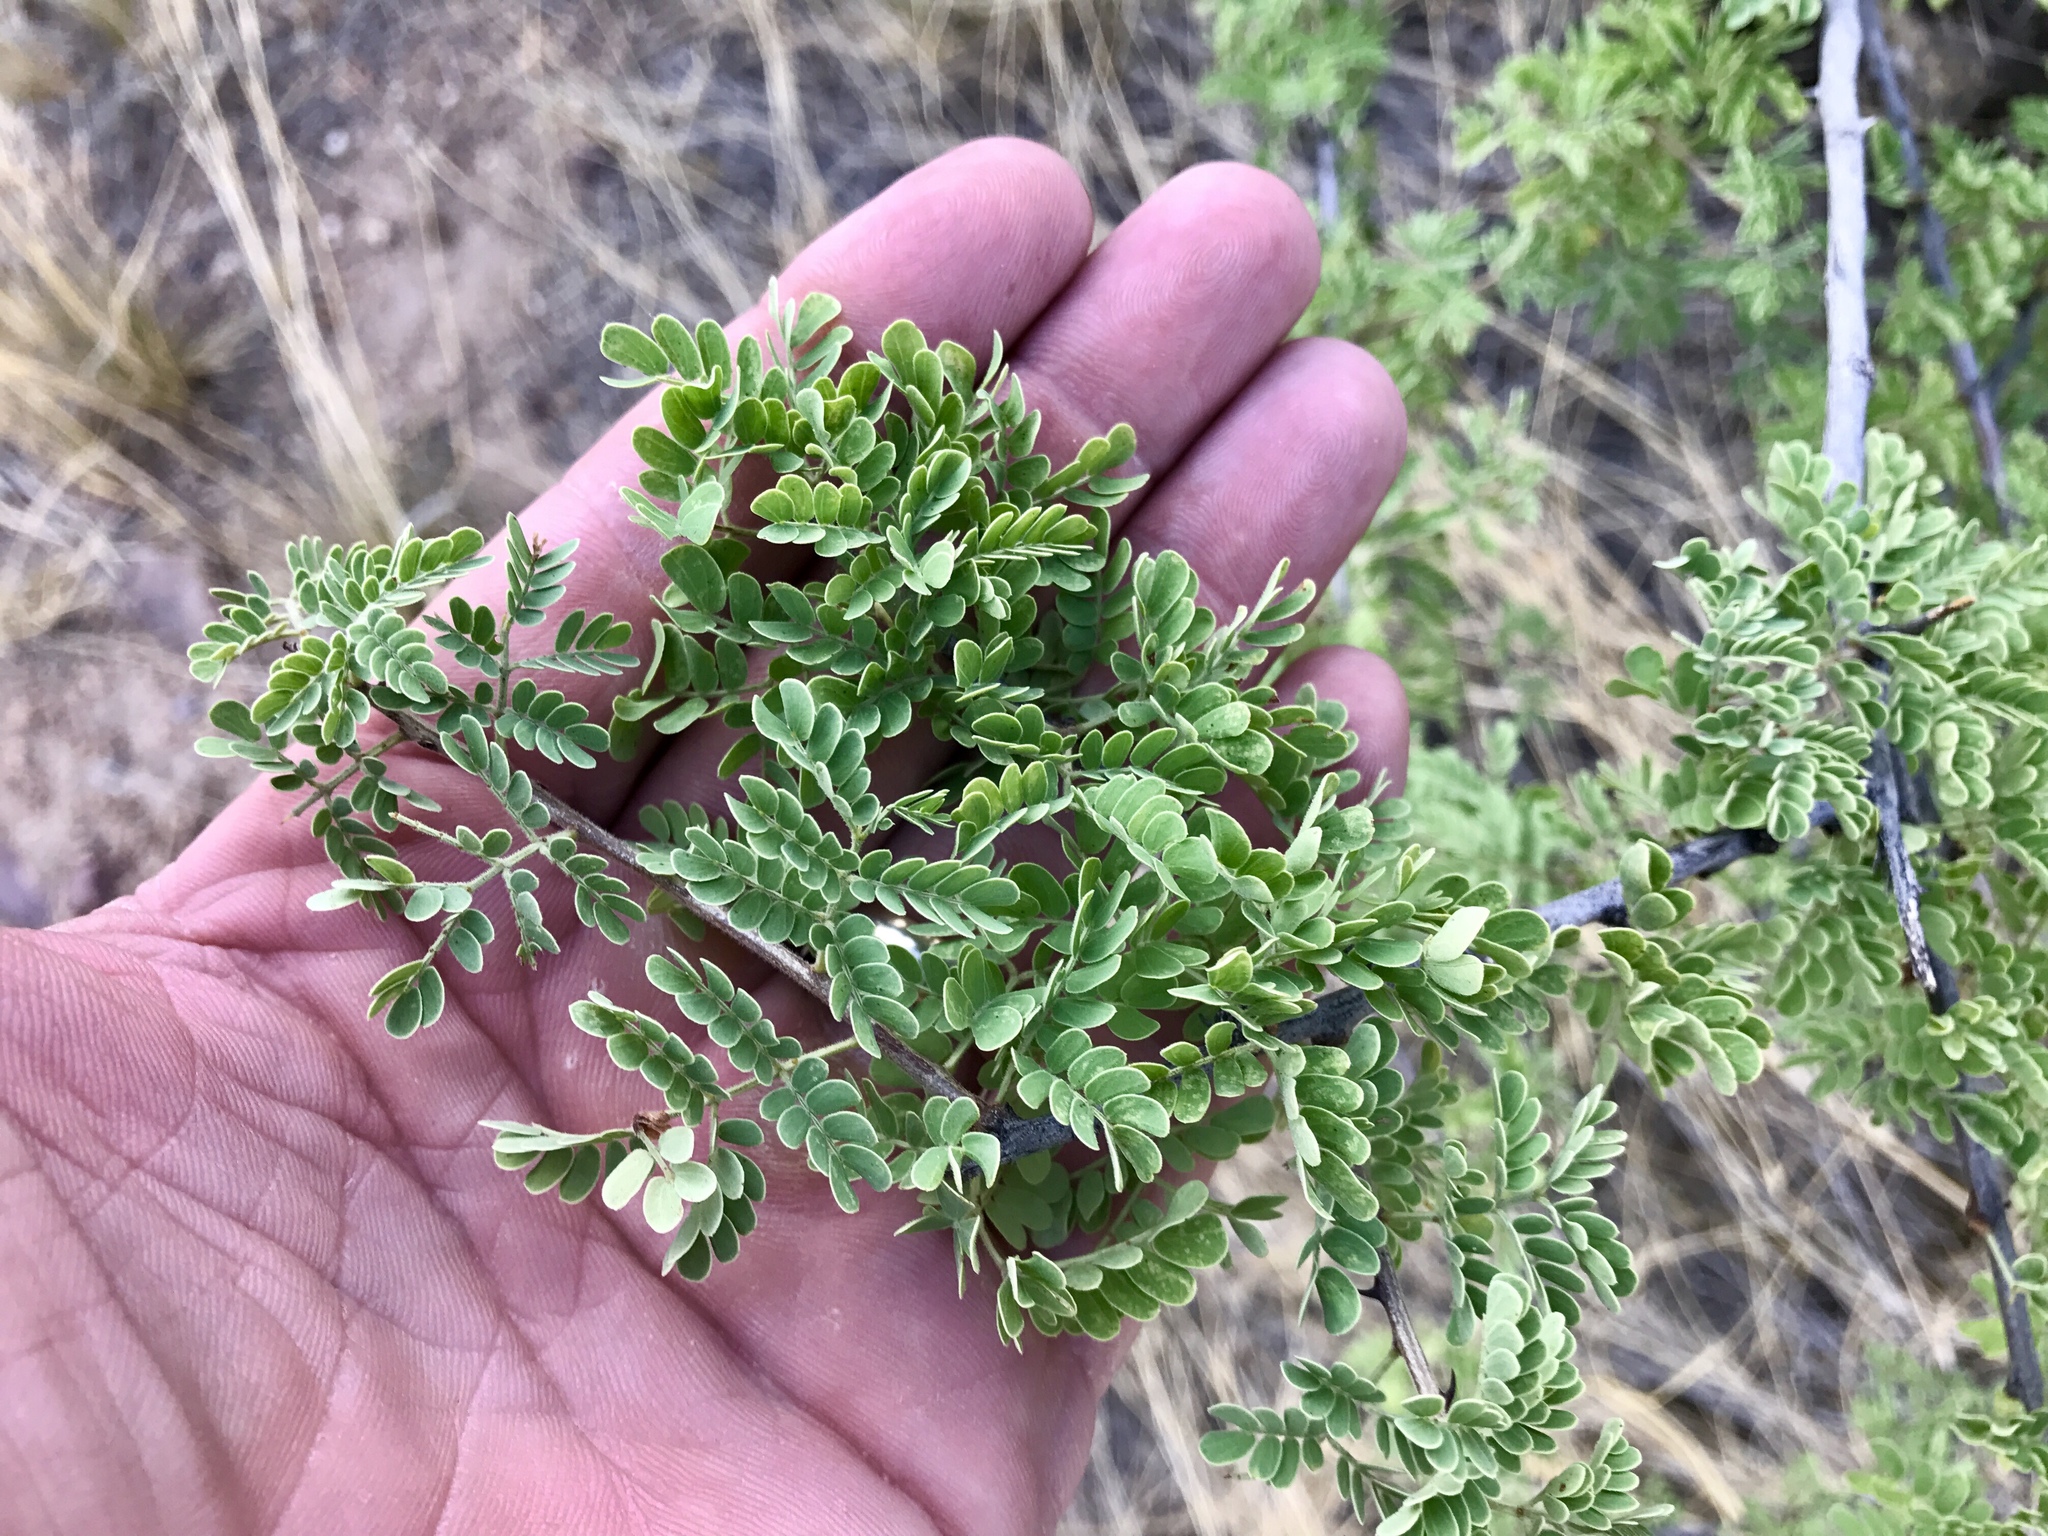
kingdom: Plantae
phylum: Tracheophyta
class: Magnoliopsida
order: Fabales
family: Fabaceae
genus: Senegalia
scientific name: Senegalia greggii
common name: Texas-mimosa
